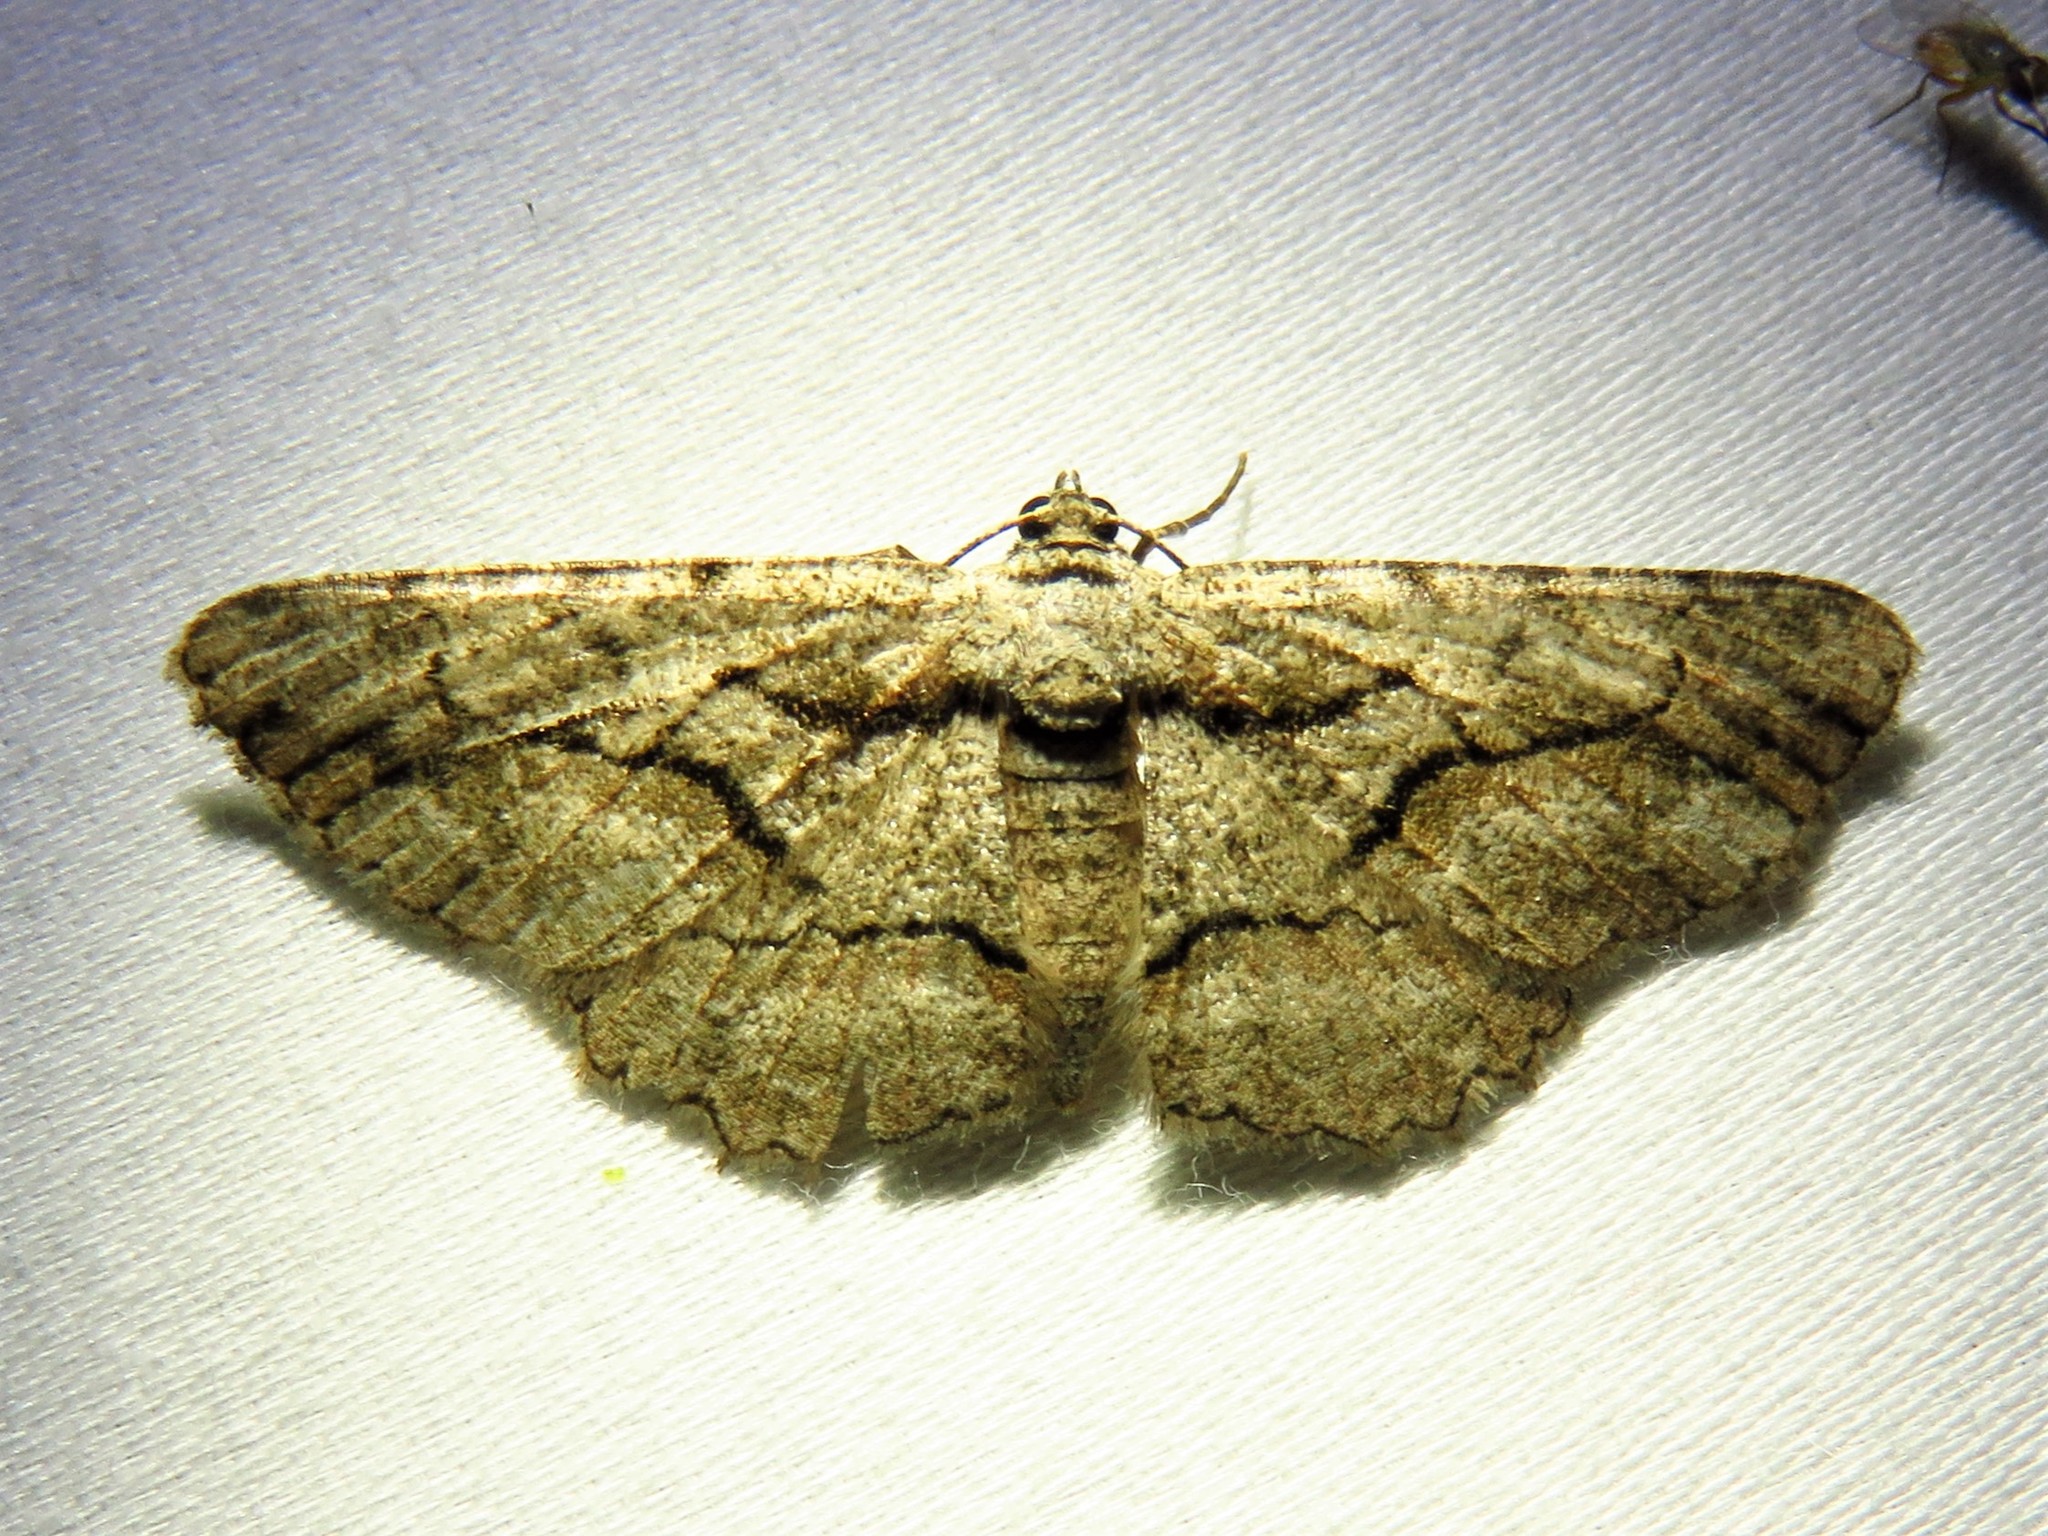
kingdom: Animalia
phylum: Arthropoda
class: Insecta
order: Lepidoptera
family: Geometridae
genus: Anavitrinella
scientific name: Anavitrinella atristrigaria
